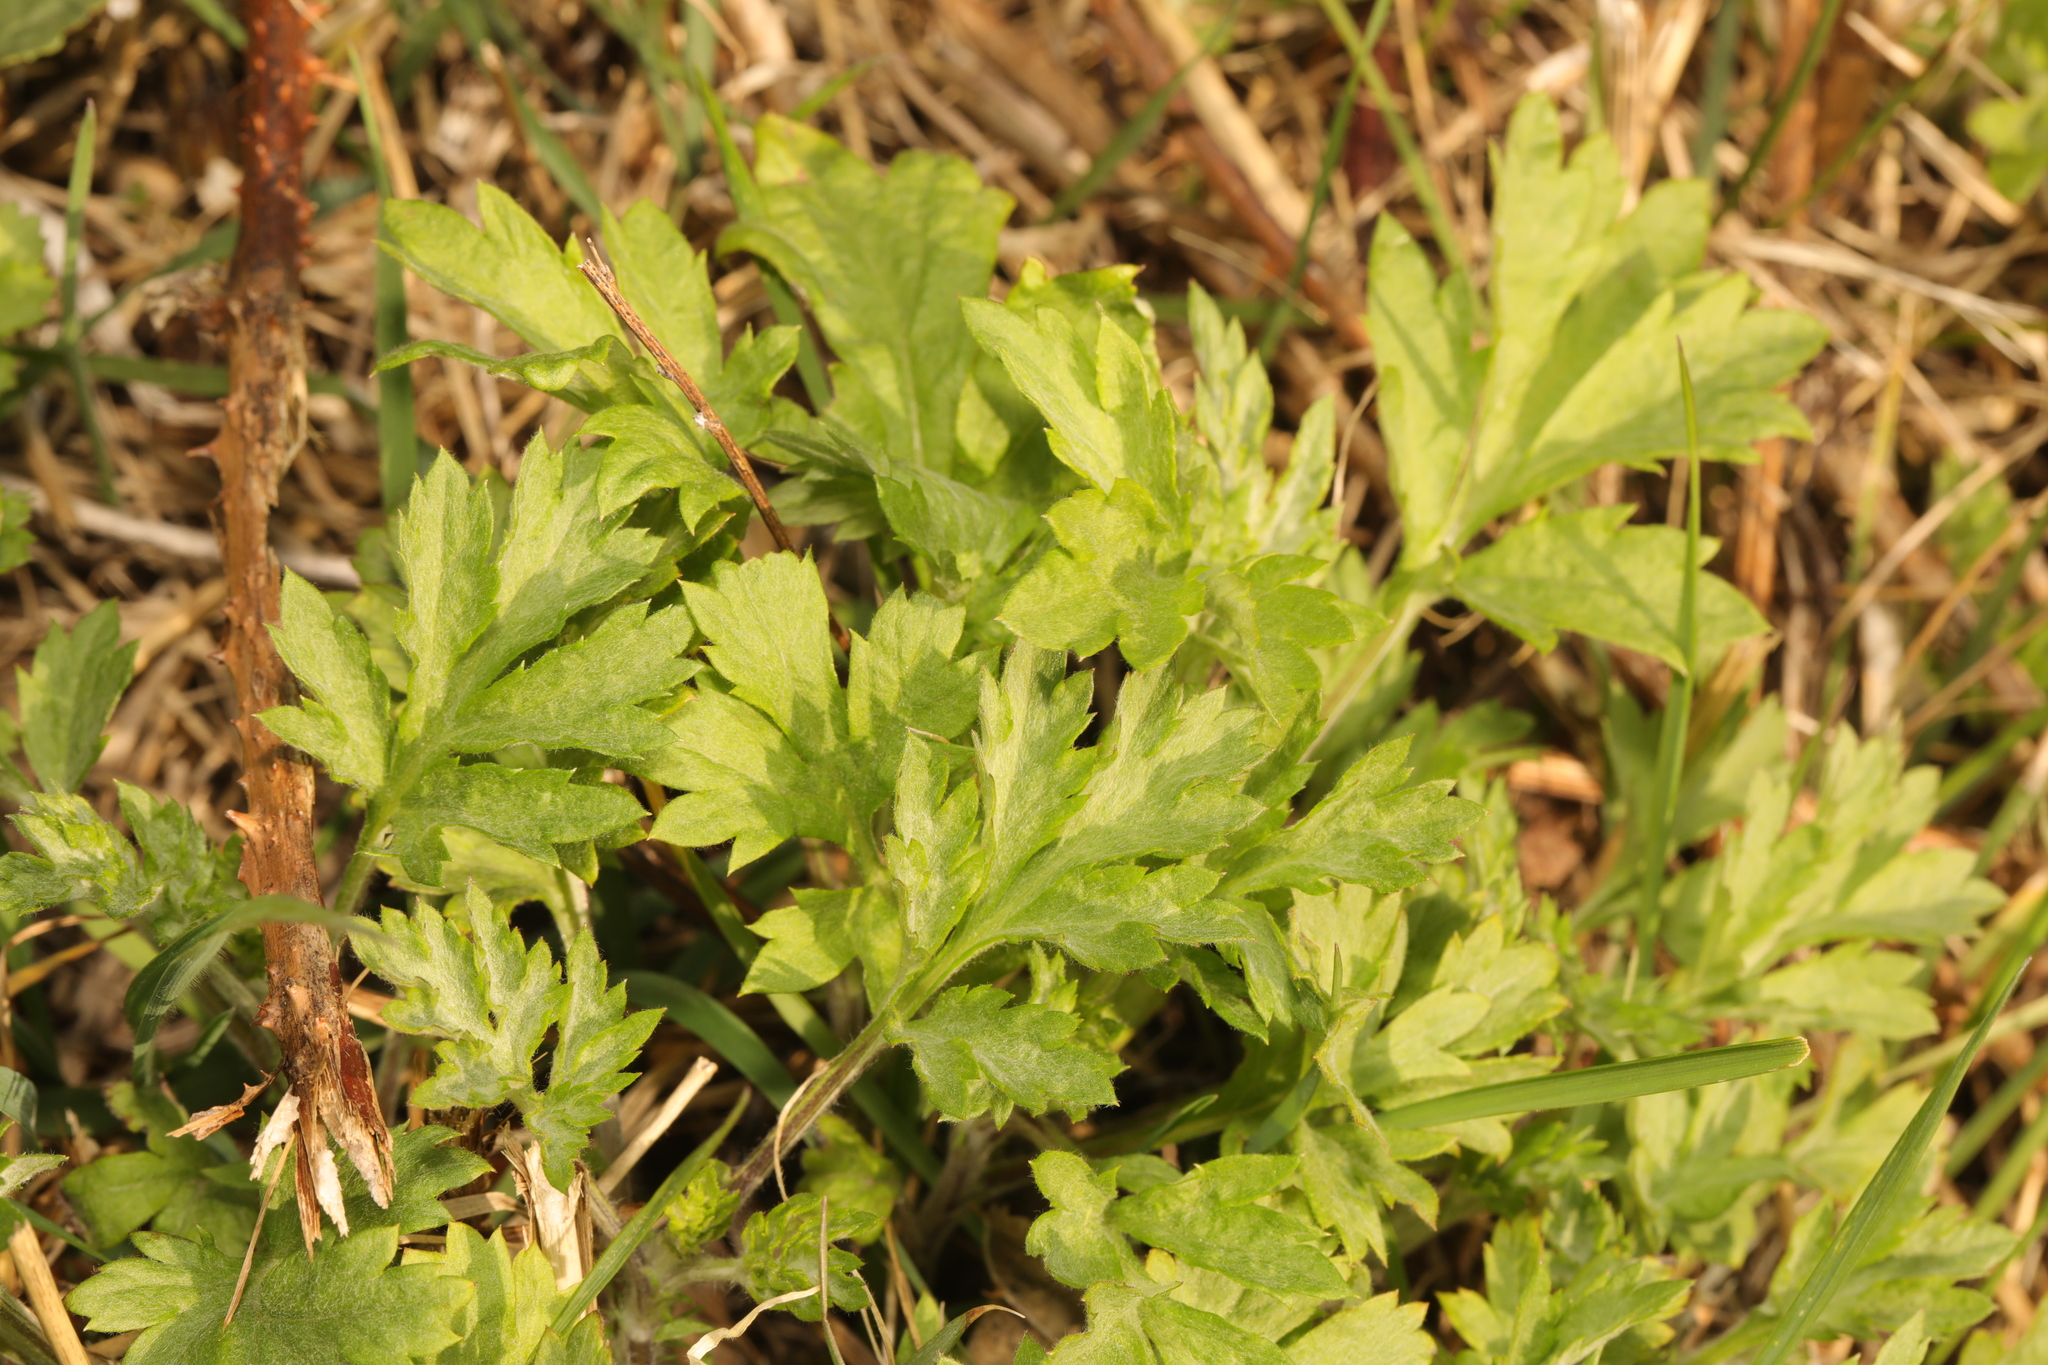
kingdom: Plantae
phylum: Tracheophyta
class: Magnoliopsida
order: Asterales
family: Asteraceae
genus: Artemisia
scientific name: Artemisia vulgaris
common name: Mugwort
